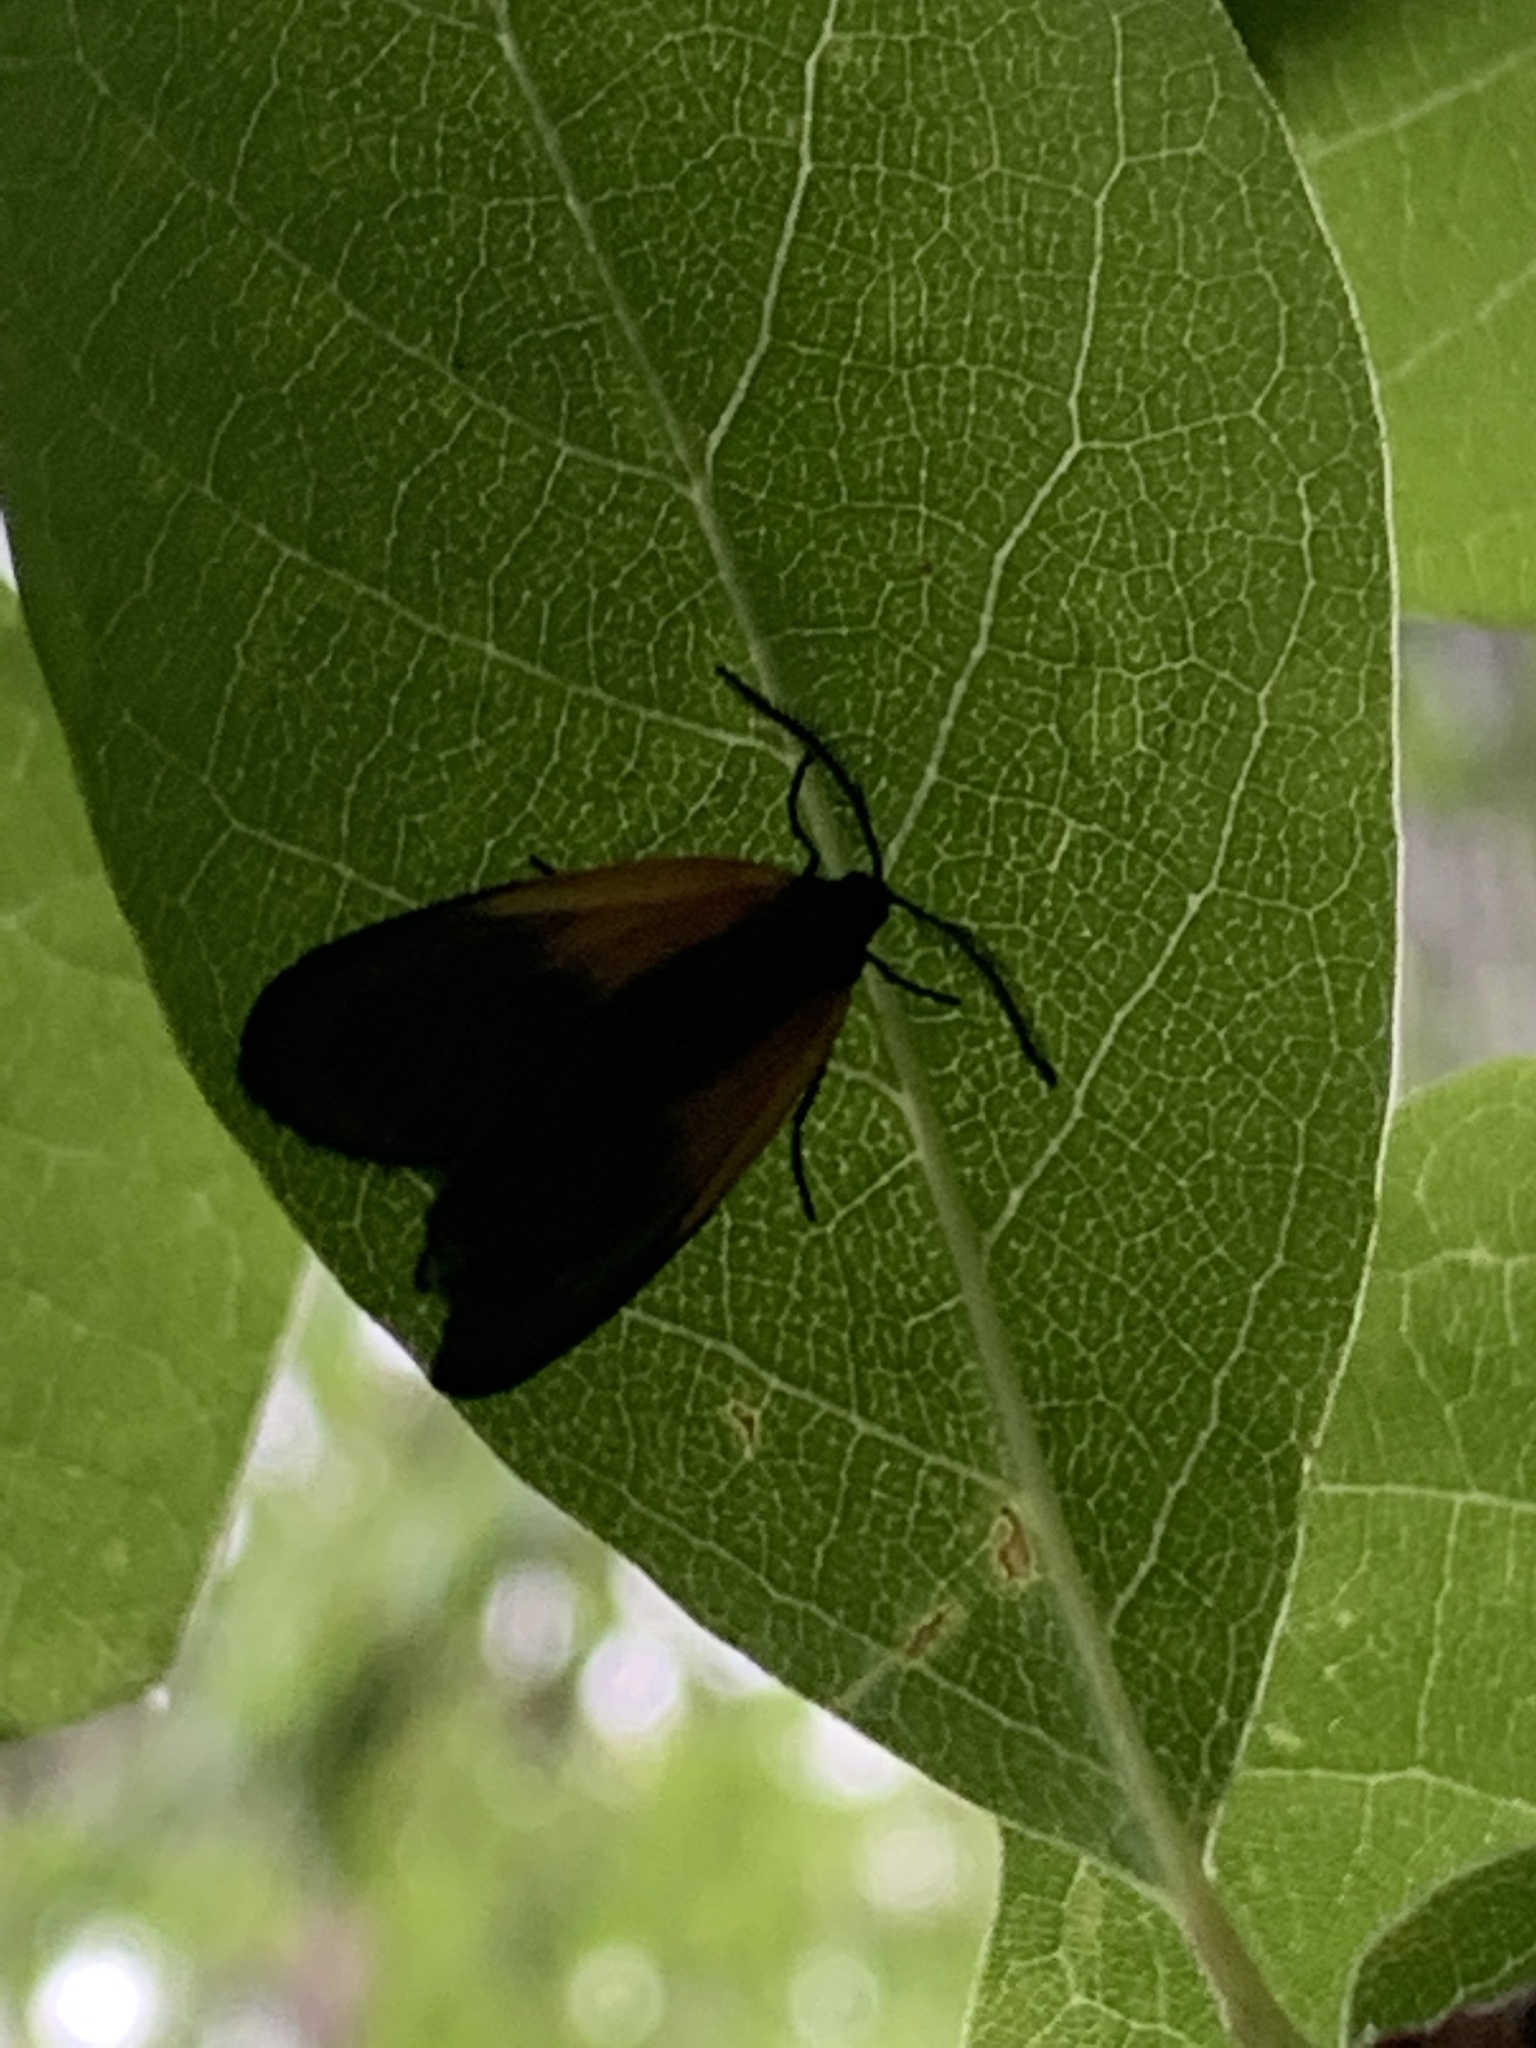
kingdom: Animalia
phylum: Arthropoda
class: Insecta
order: Lepidoptera
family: Zygaenidae
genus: Malthaca
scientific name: Malthaca dimidiata
